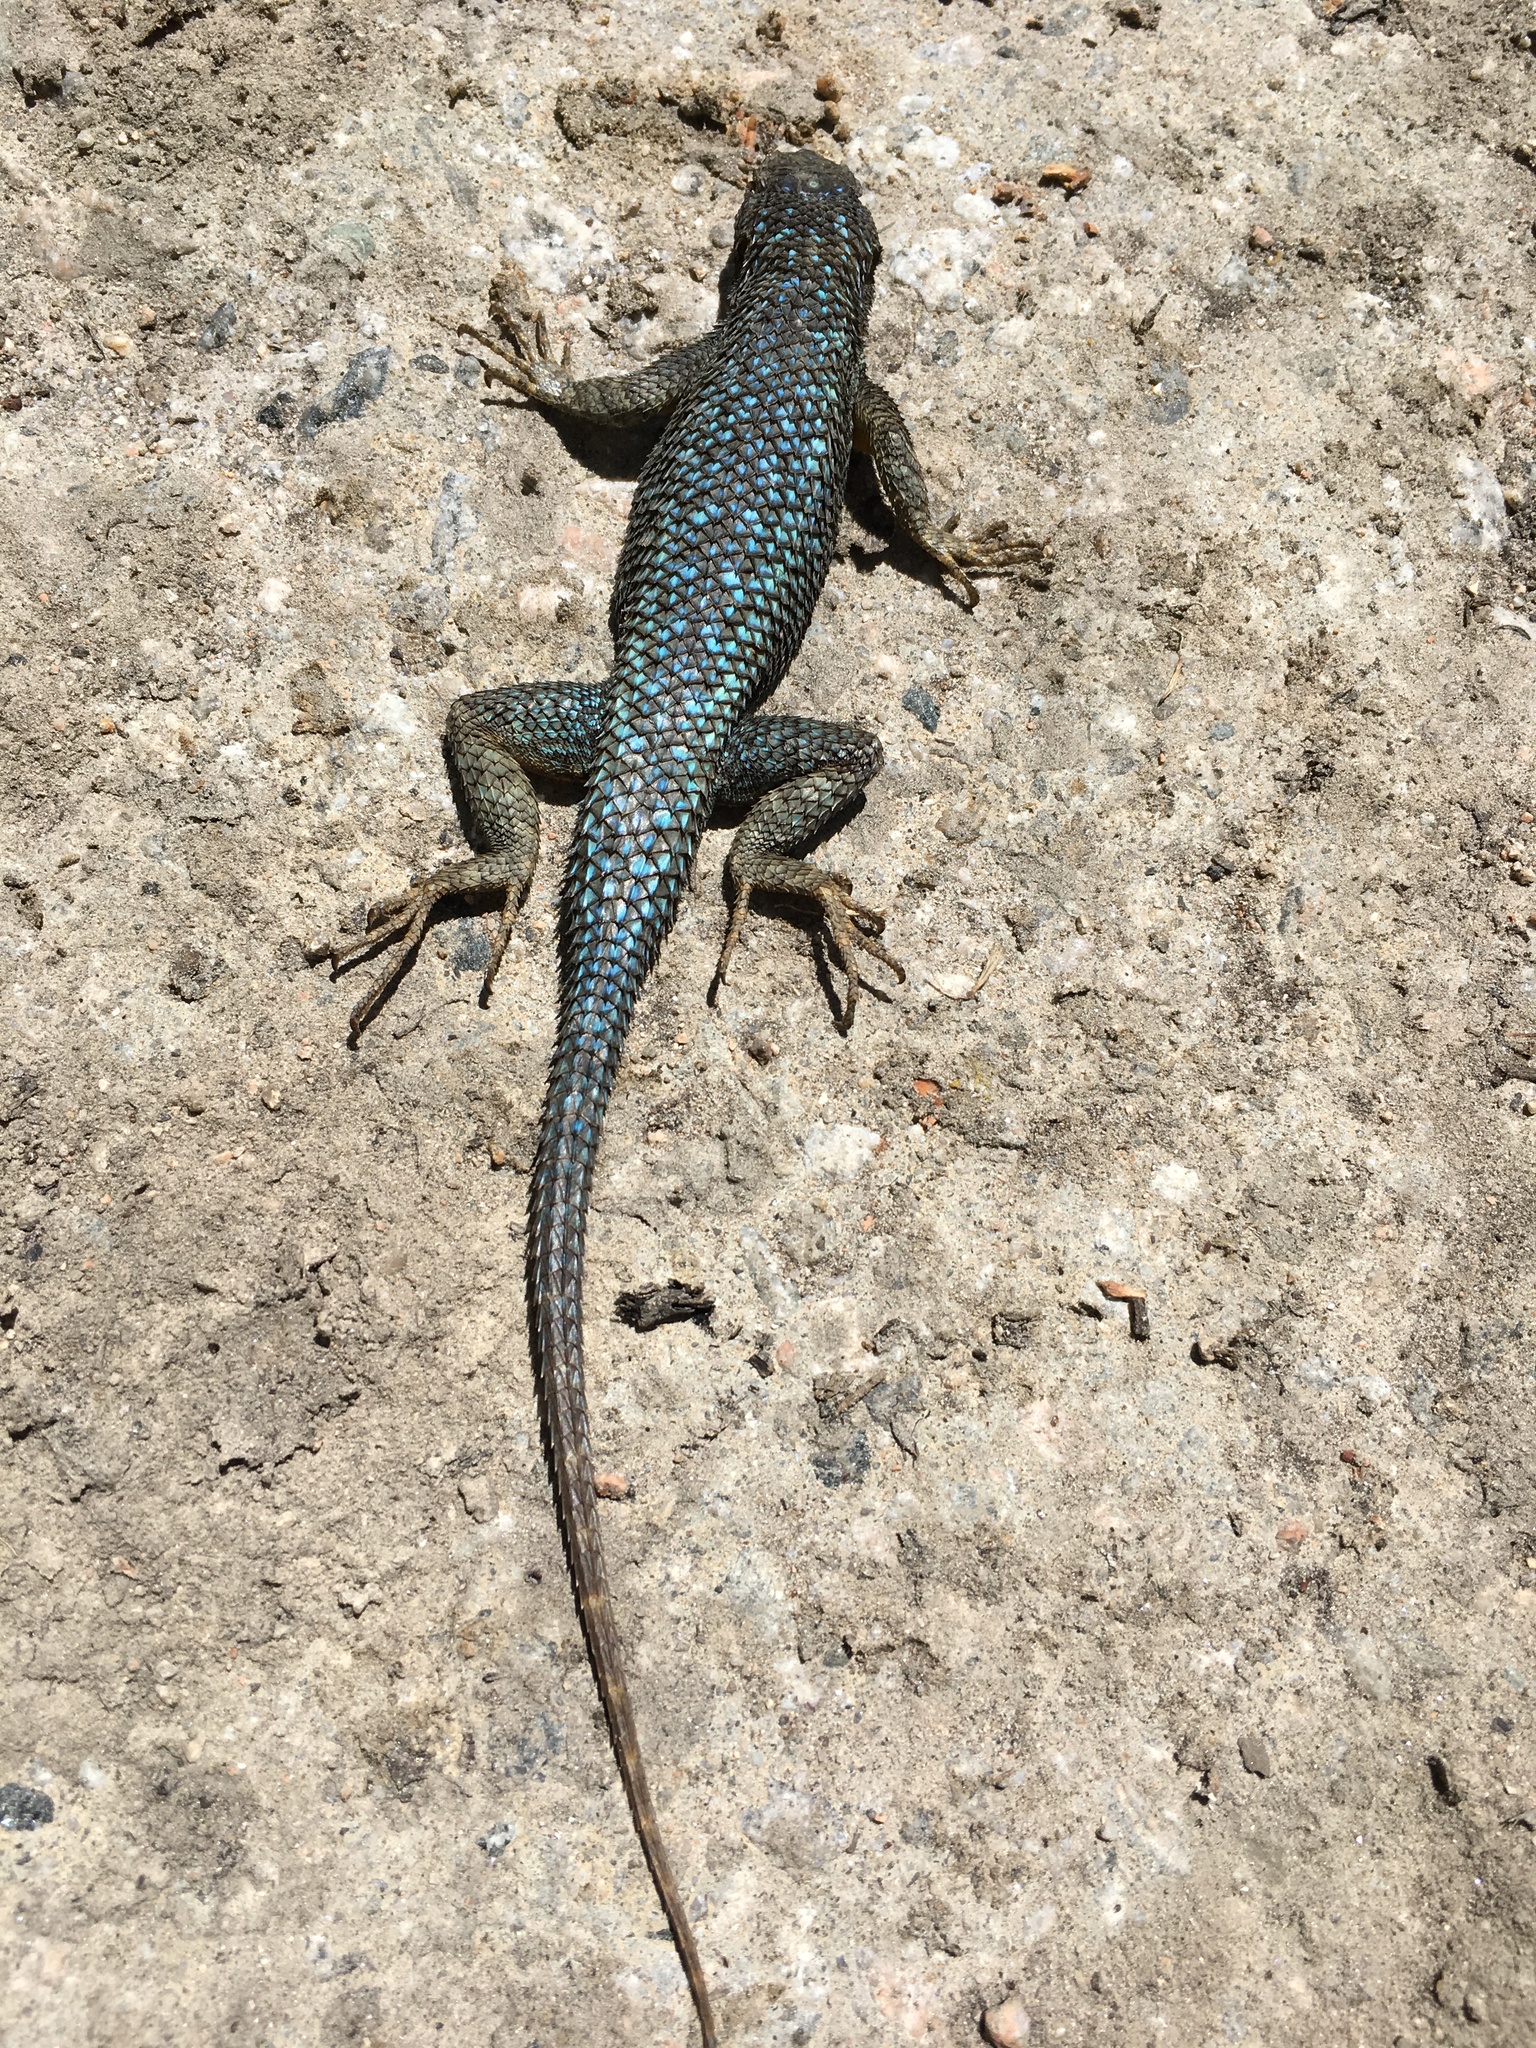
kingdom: Animalia
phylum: Chordata
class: Squamata
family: Phrynosomatidae
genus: Sceloporus
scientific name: Sceloporus occidentalis
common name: Western fence lizard
